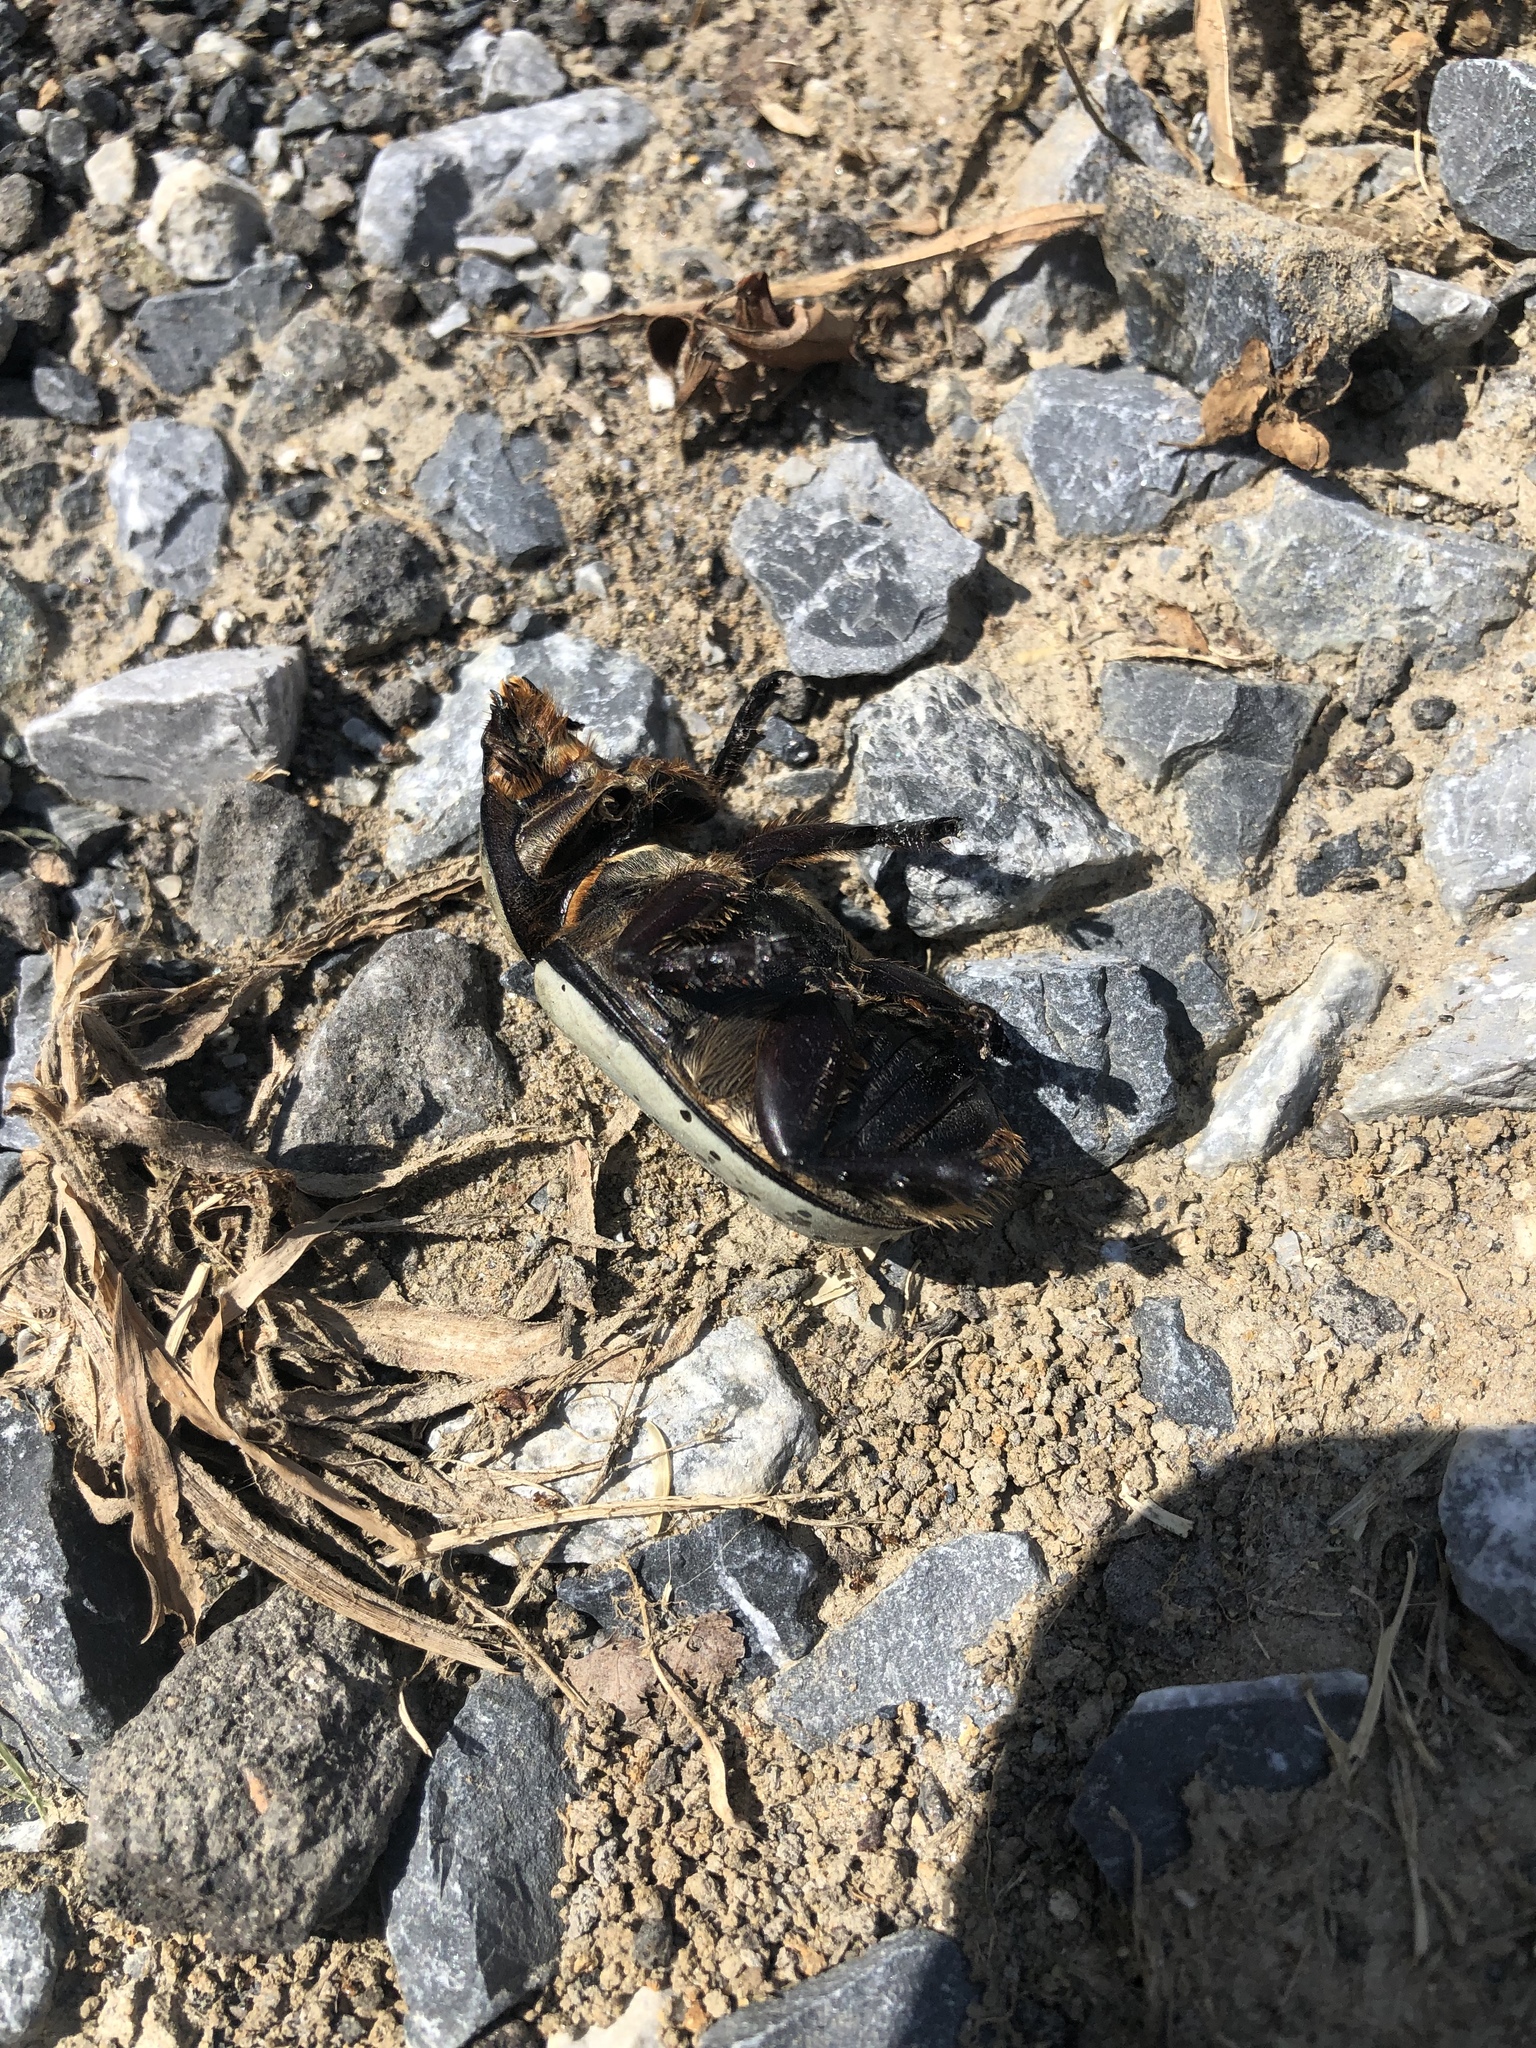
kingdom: Animalia
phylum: Arthropoda
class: Insecta
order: Coleoptera
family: Scarabaeidae
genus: Dynastes
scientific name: Dynastes tityus
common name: Eastern hercules beetle
